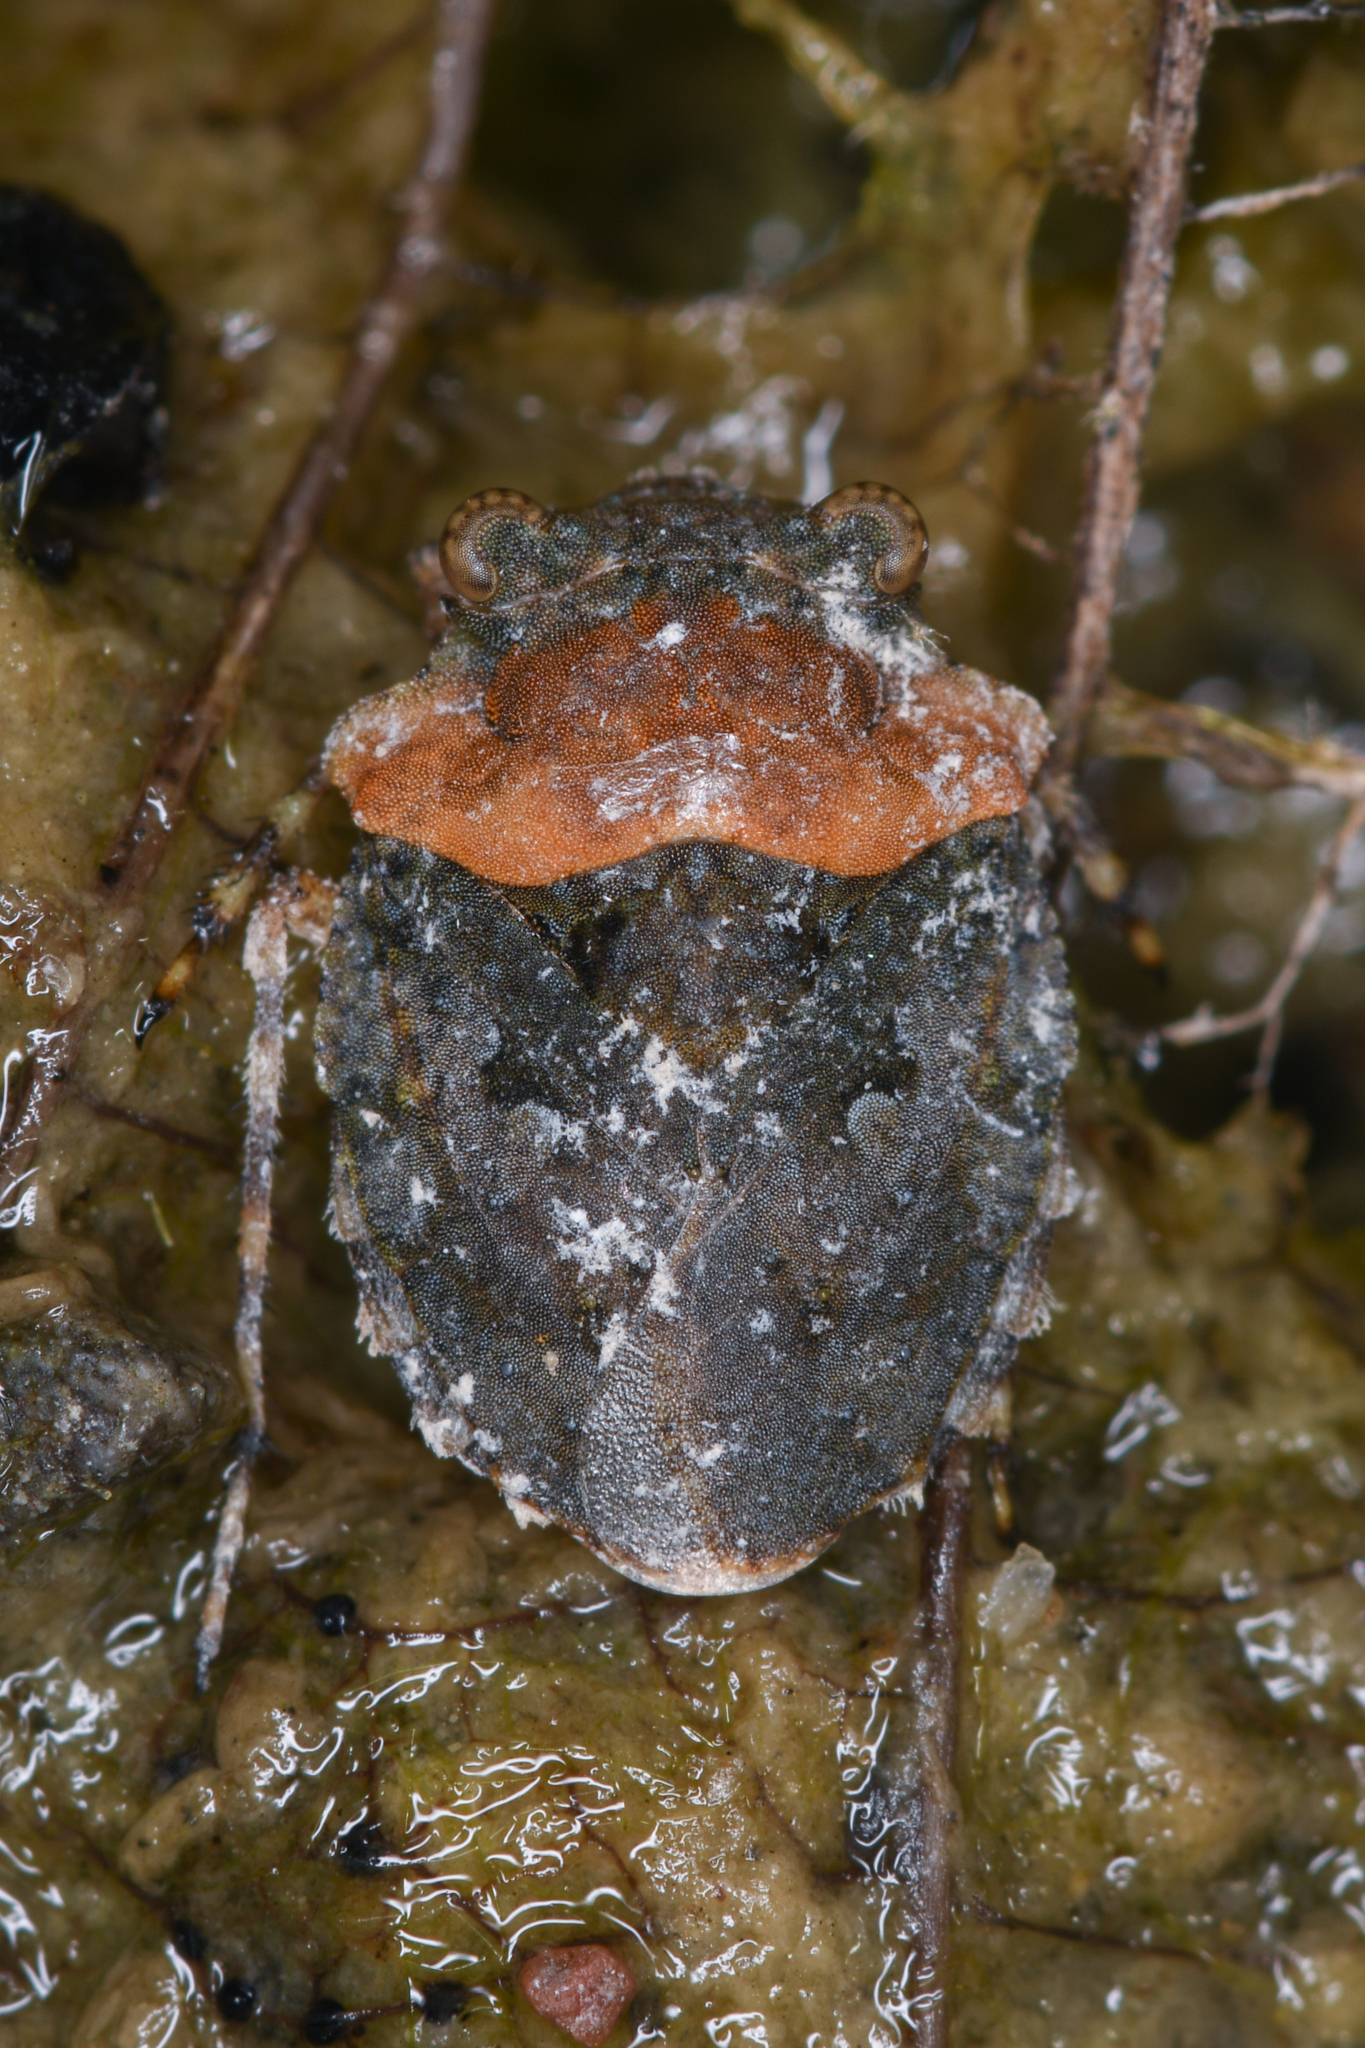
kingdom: Animalia
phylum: Arthropoda
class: Insecta
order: Hemiptera
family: Gelastocoridae
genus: Gelastocoris
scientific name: Gelastocoris oculatus
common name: Toad bug
